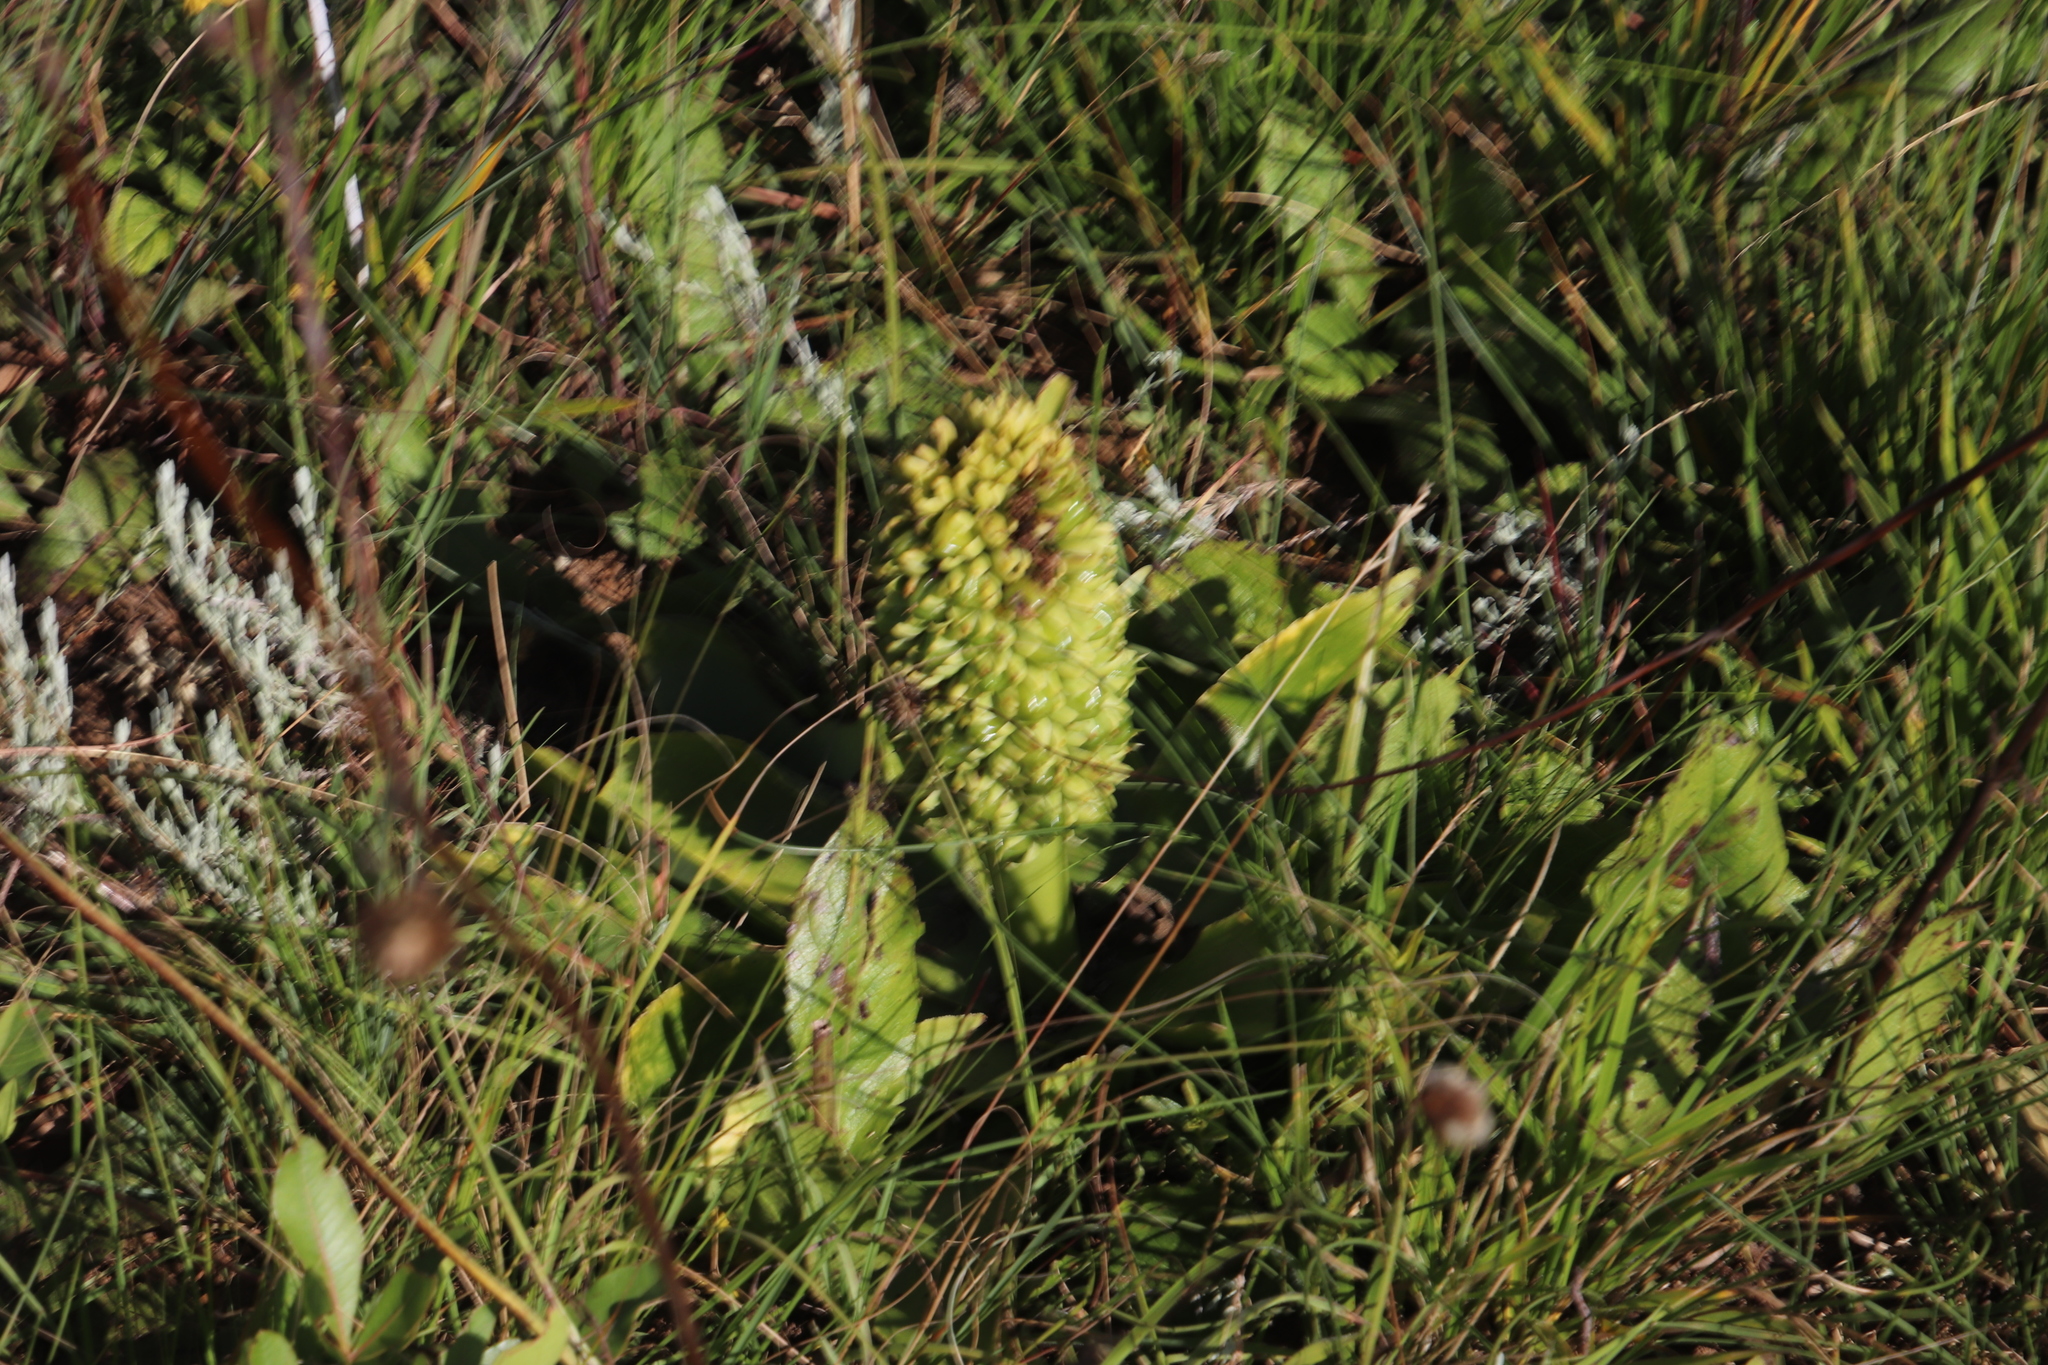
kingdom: Plantae
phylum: Tracheophyta
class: Liliopsida
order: Asparagales
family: Asparagaceae
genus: Eucomis
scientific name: Eucomis autumnalis
